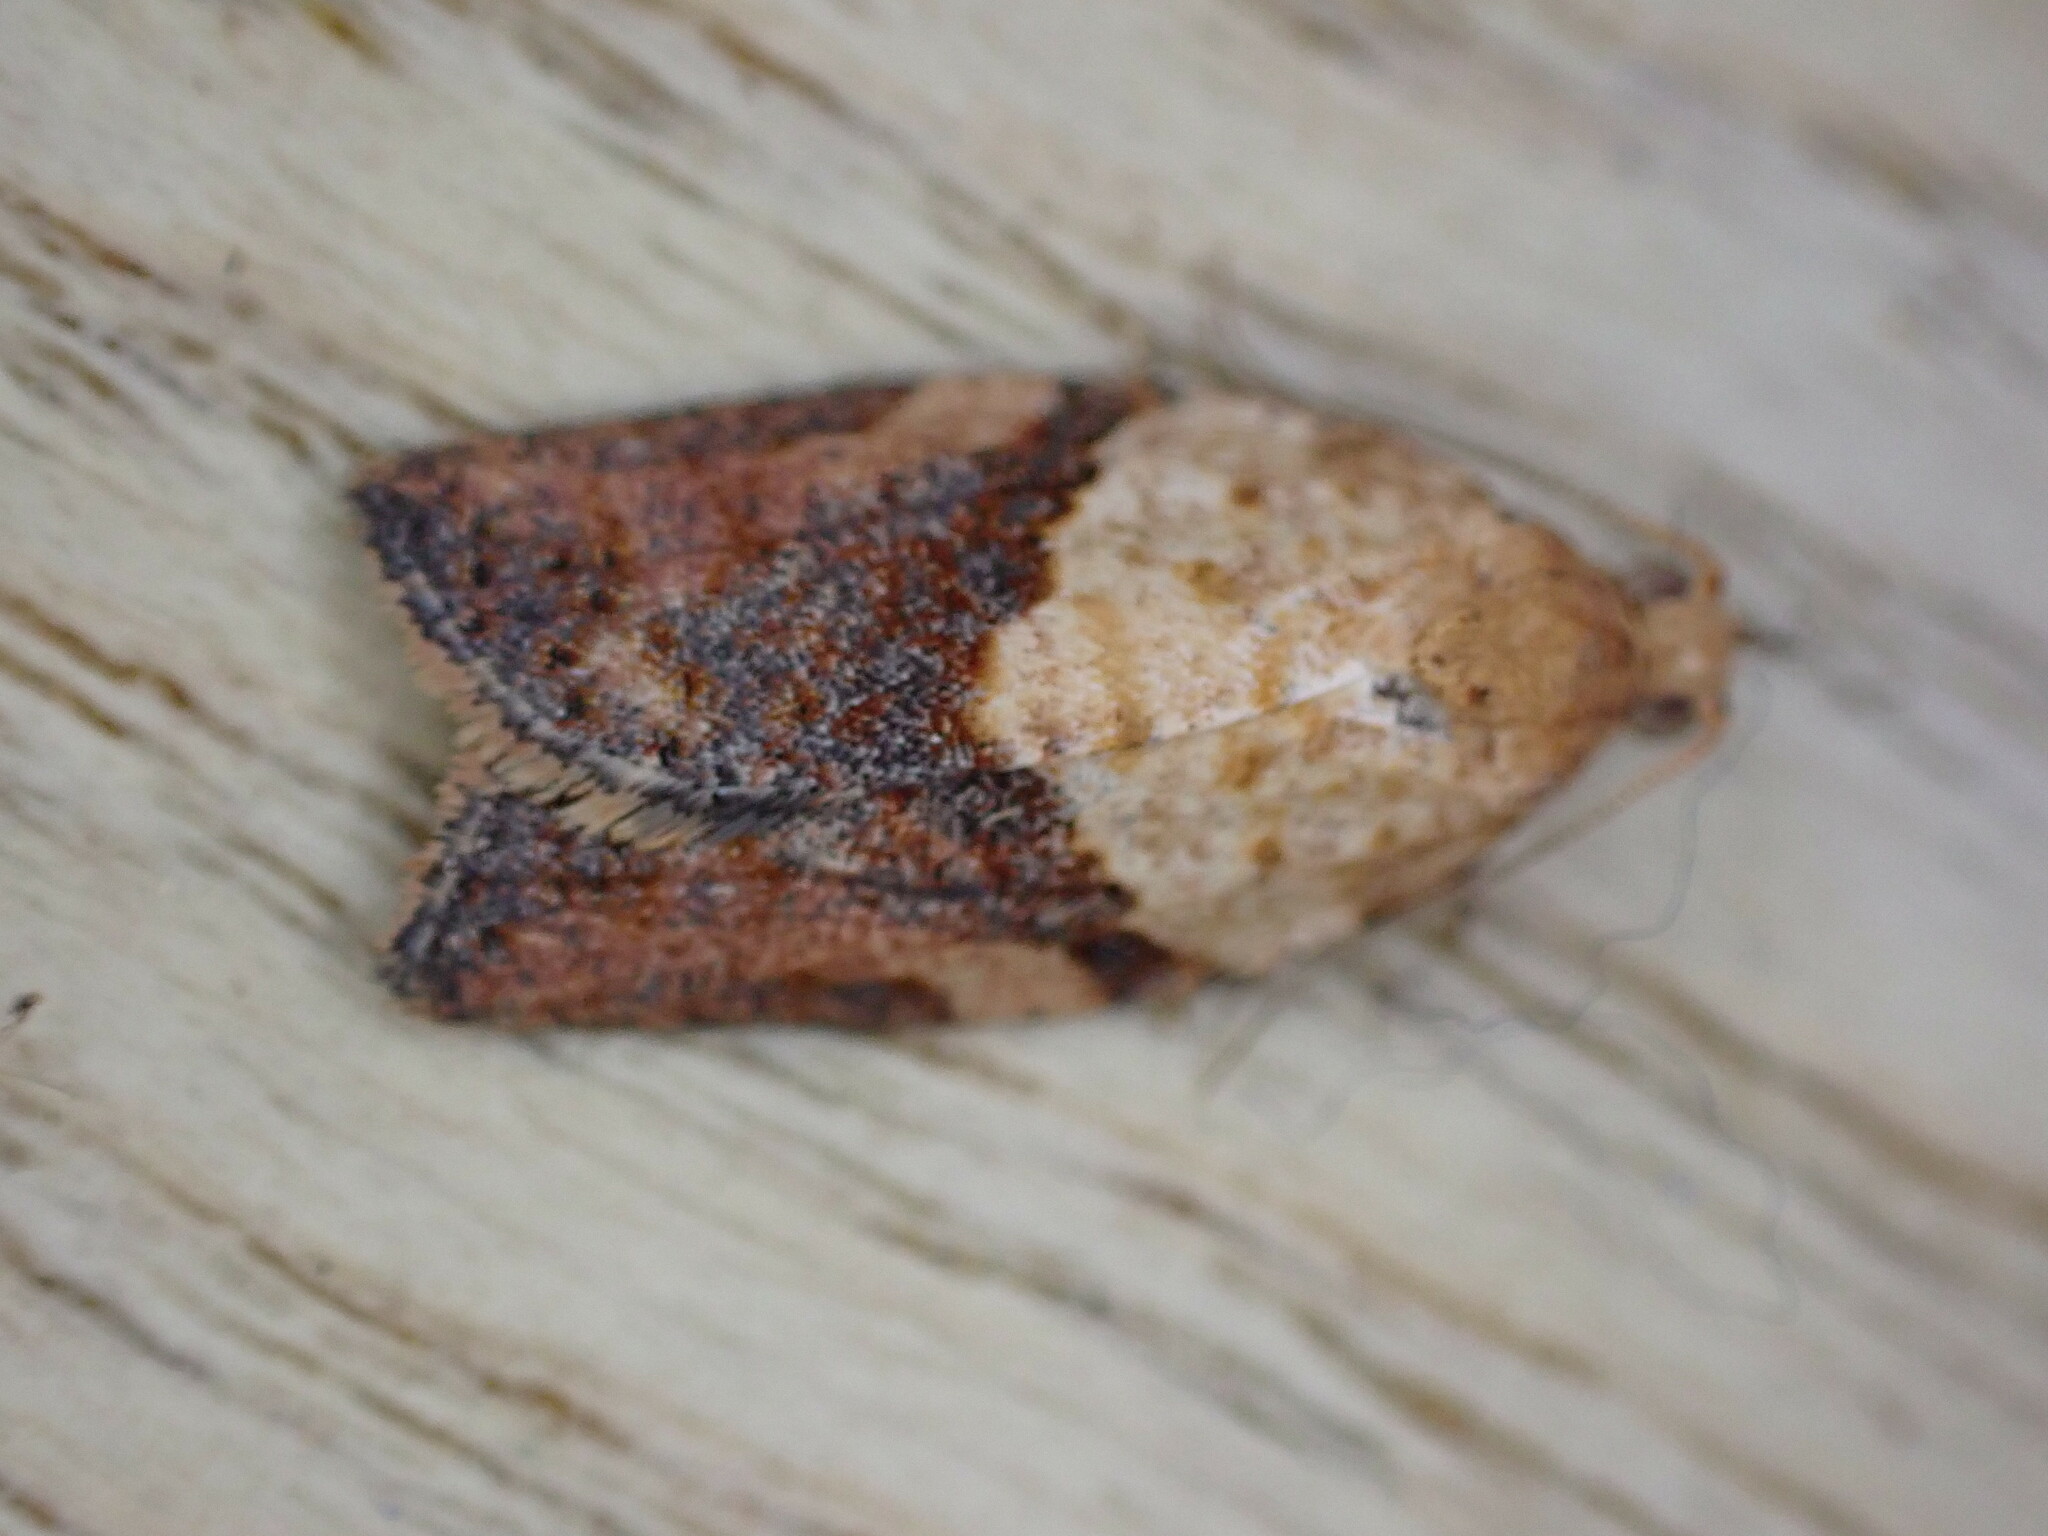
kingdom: Animalia
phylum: Arthropoda
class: Insecta
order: Lepidoptera
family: Tortricidae
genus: Epiphyas
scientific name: Epiphyas postvittana
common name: Light brown apple moth
